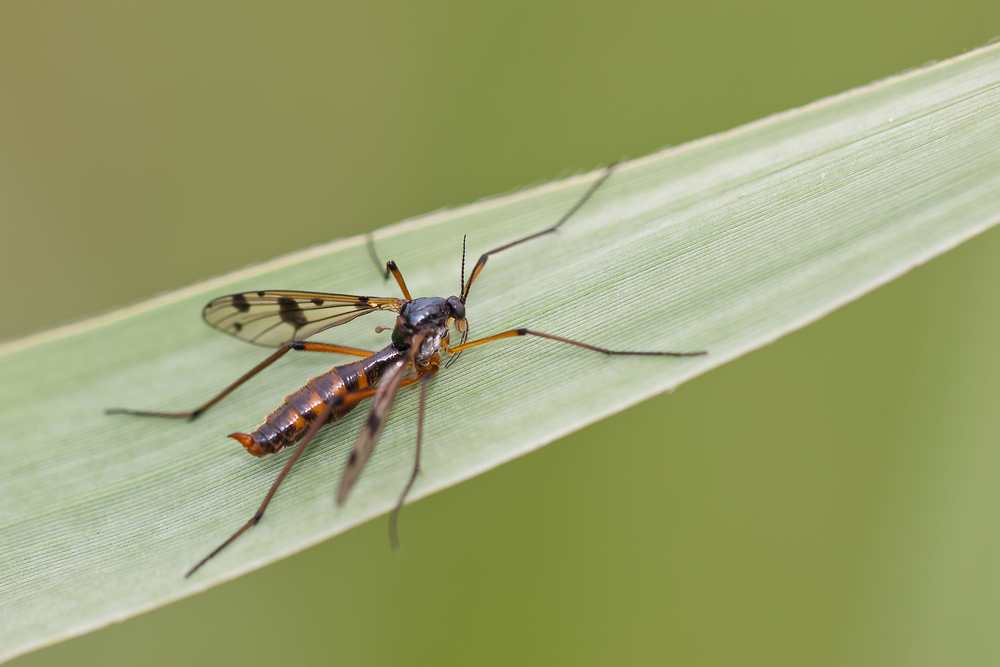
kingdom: Animalia
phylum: Arthropoda
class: Insecta
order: Diptera
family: Ptychopteridae
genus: Ptychoptera
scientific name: Ptychoptera contaminata
